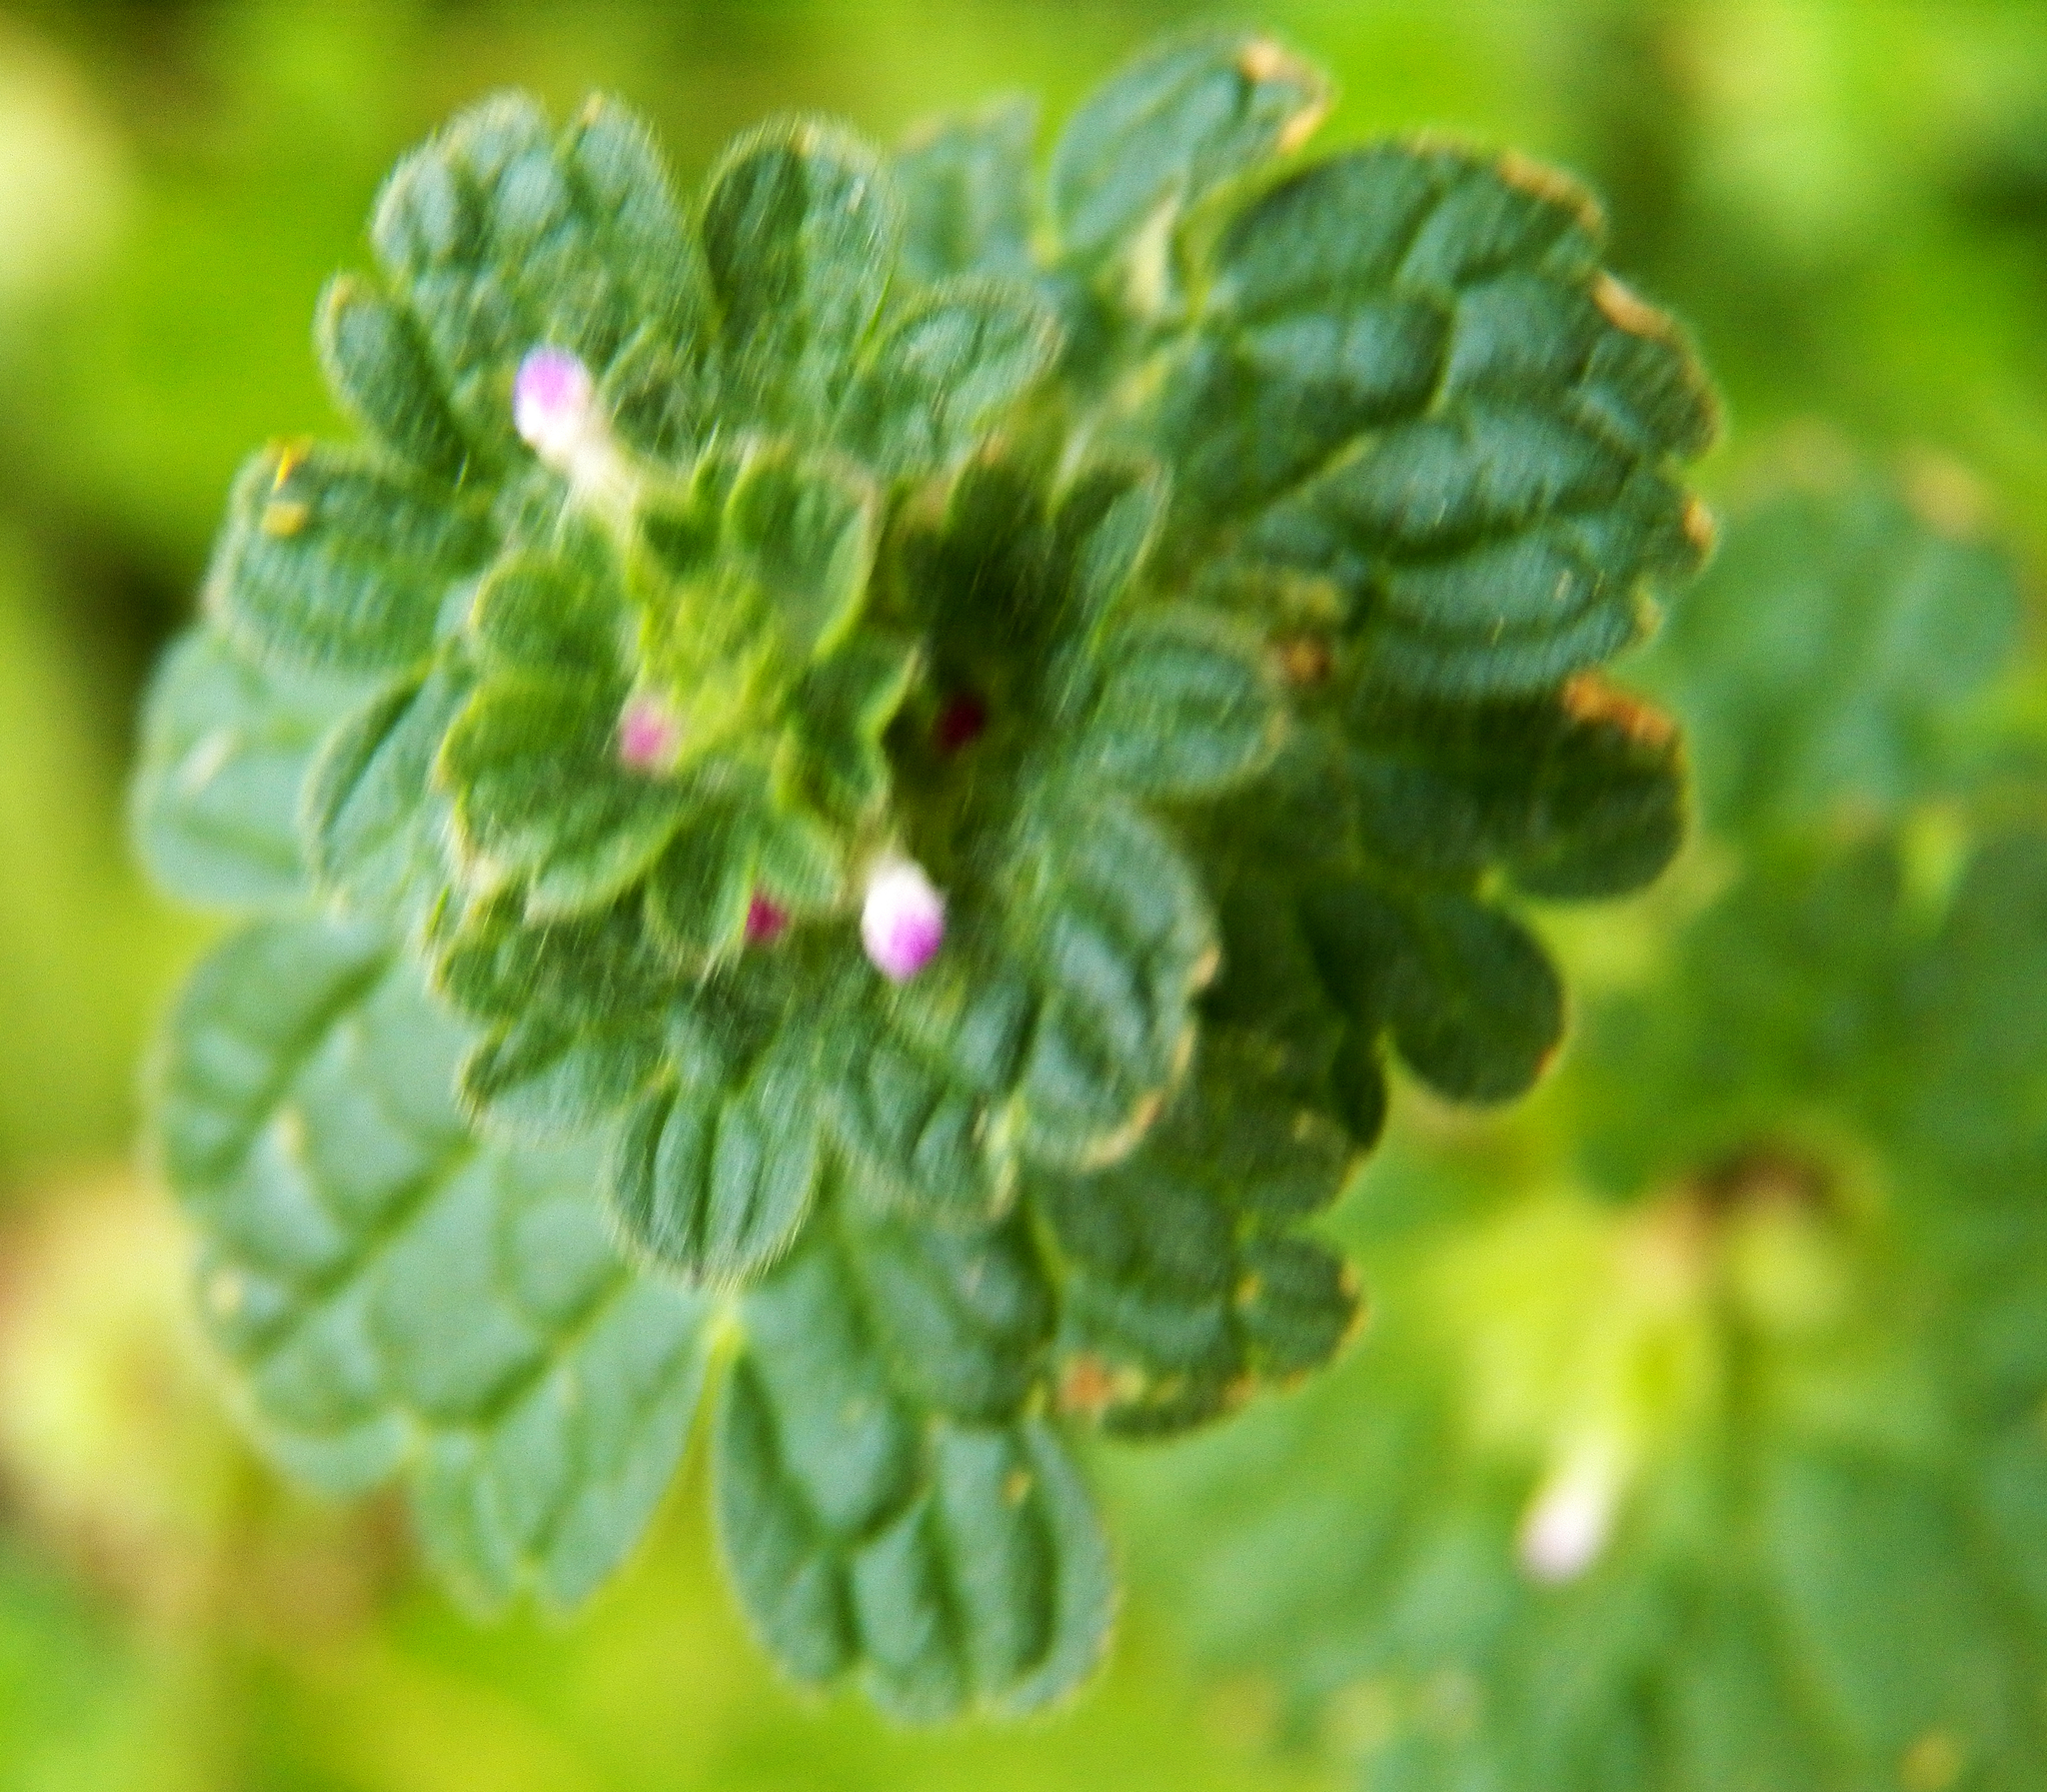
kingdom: Plantae
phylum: Tracheophyta
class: Magnoliopsida
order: Lamiales
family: Lamiaceae
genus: Lamium
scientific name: Lamium amplexicaule
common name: Henbit dead-nettle
